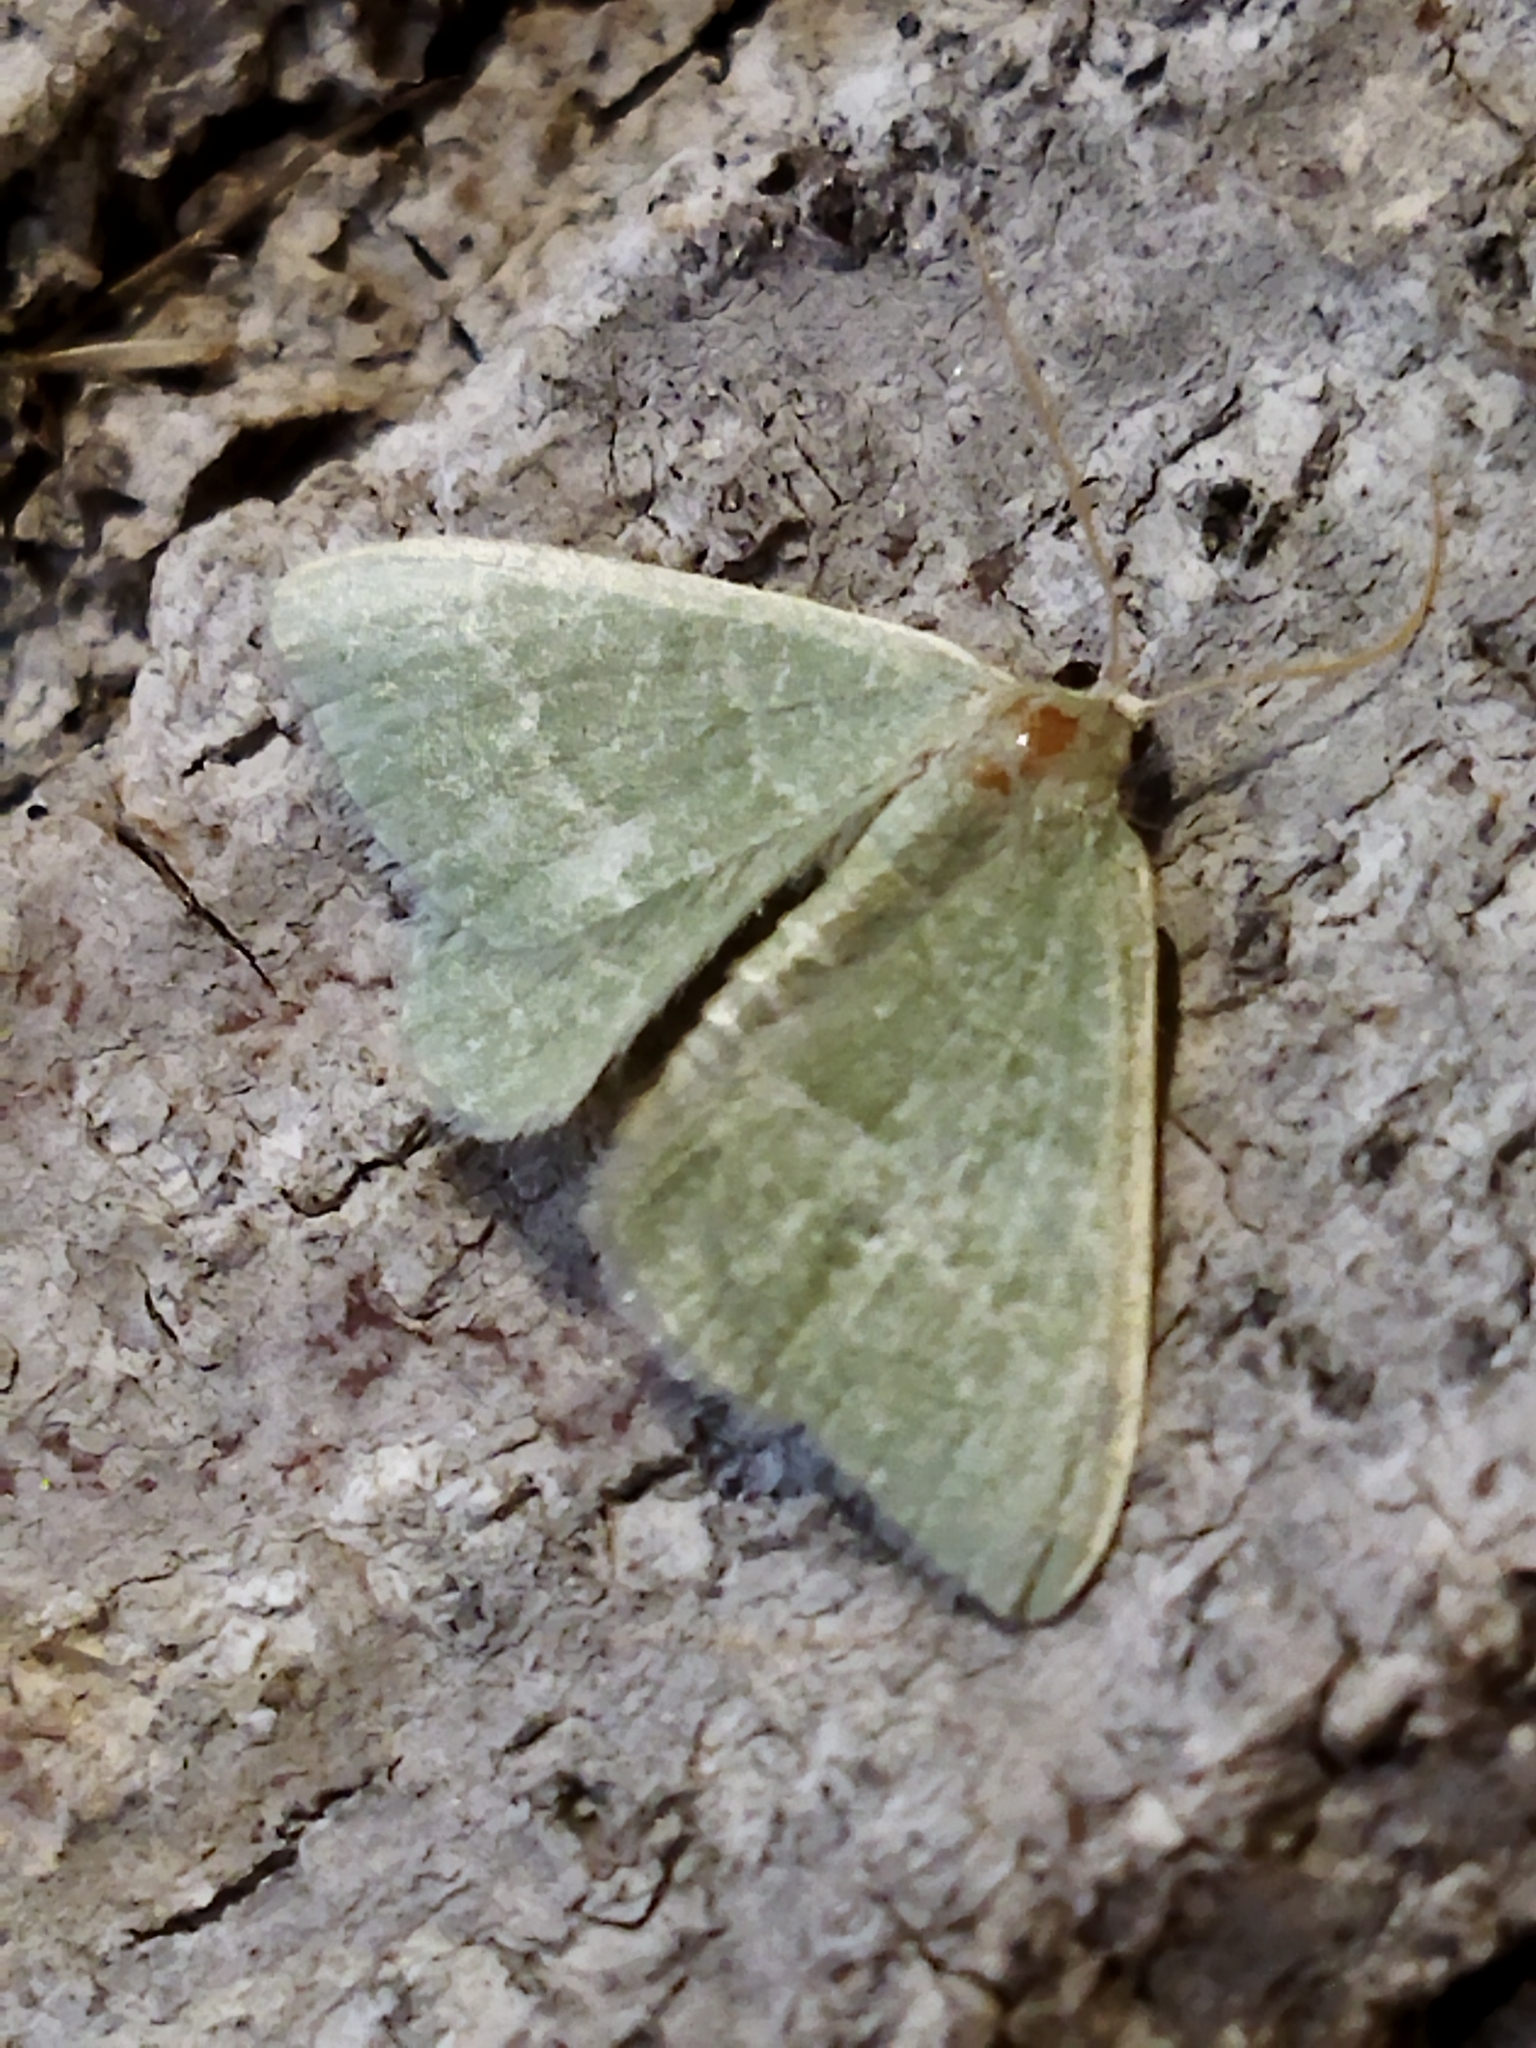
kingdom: Animalia
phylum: Arthropoda
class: Insecta
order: Lepidoptera
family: Geometridae
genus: Chlorissa
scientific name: Chlorissa etruscaria
